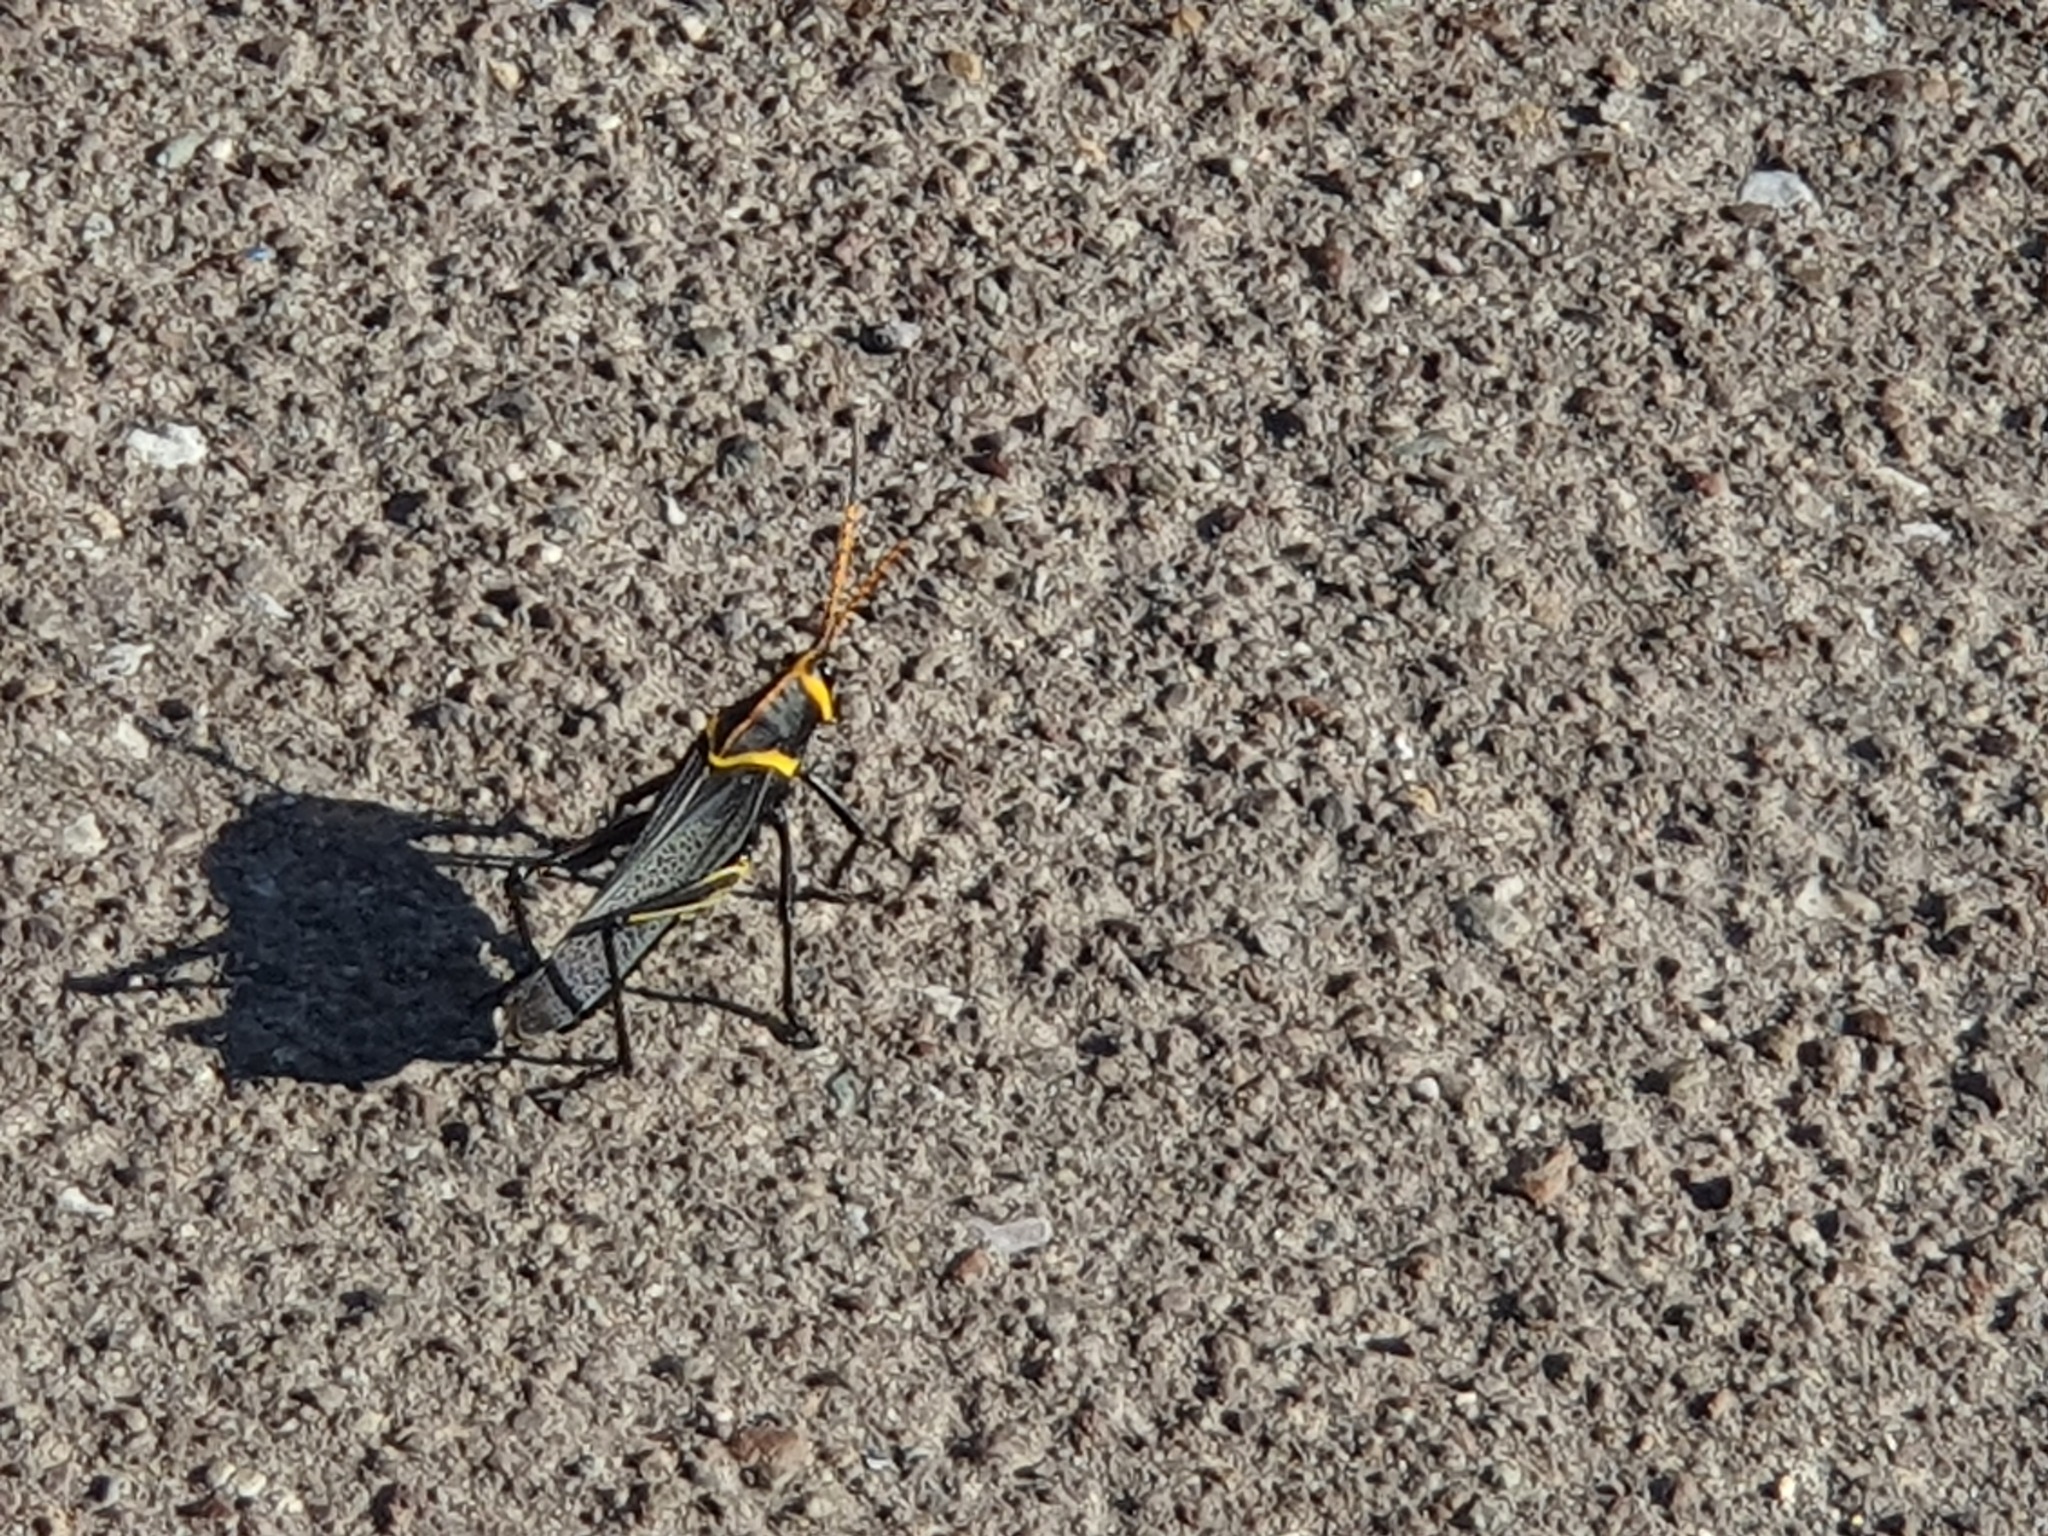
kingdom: Animalia
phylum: Arthropoda
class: Insecta
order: Orthoptera
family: Romaleidae
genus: Romalea
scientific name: Romalea
